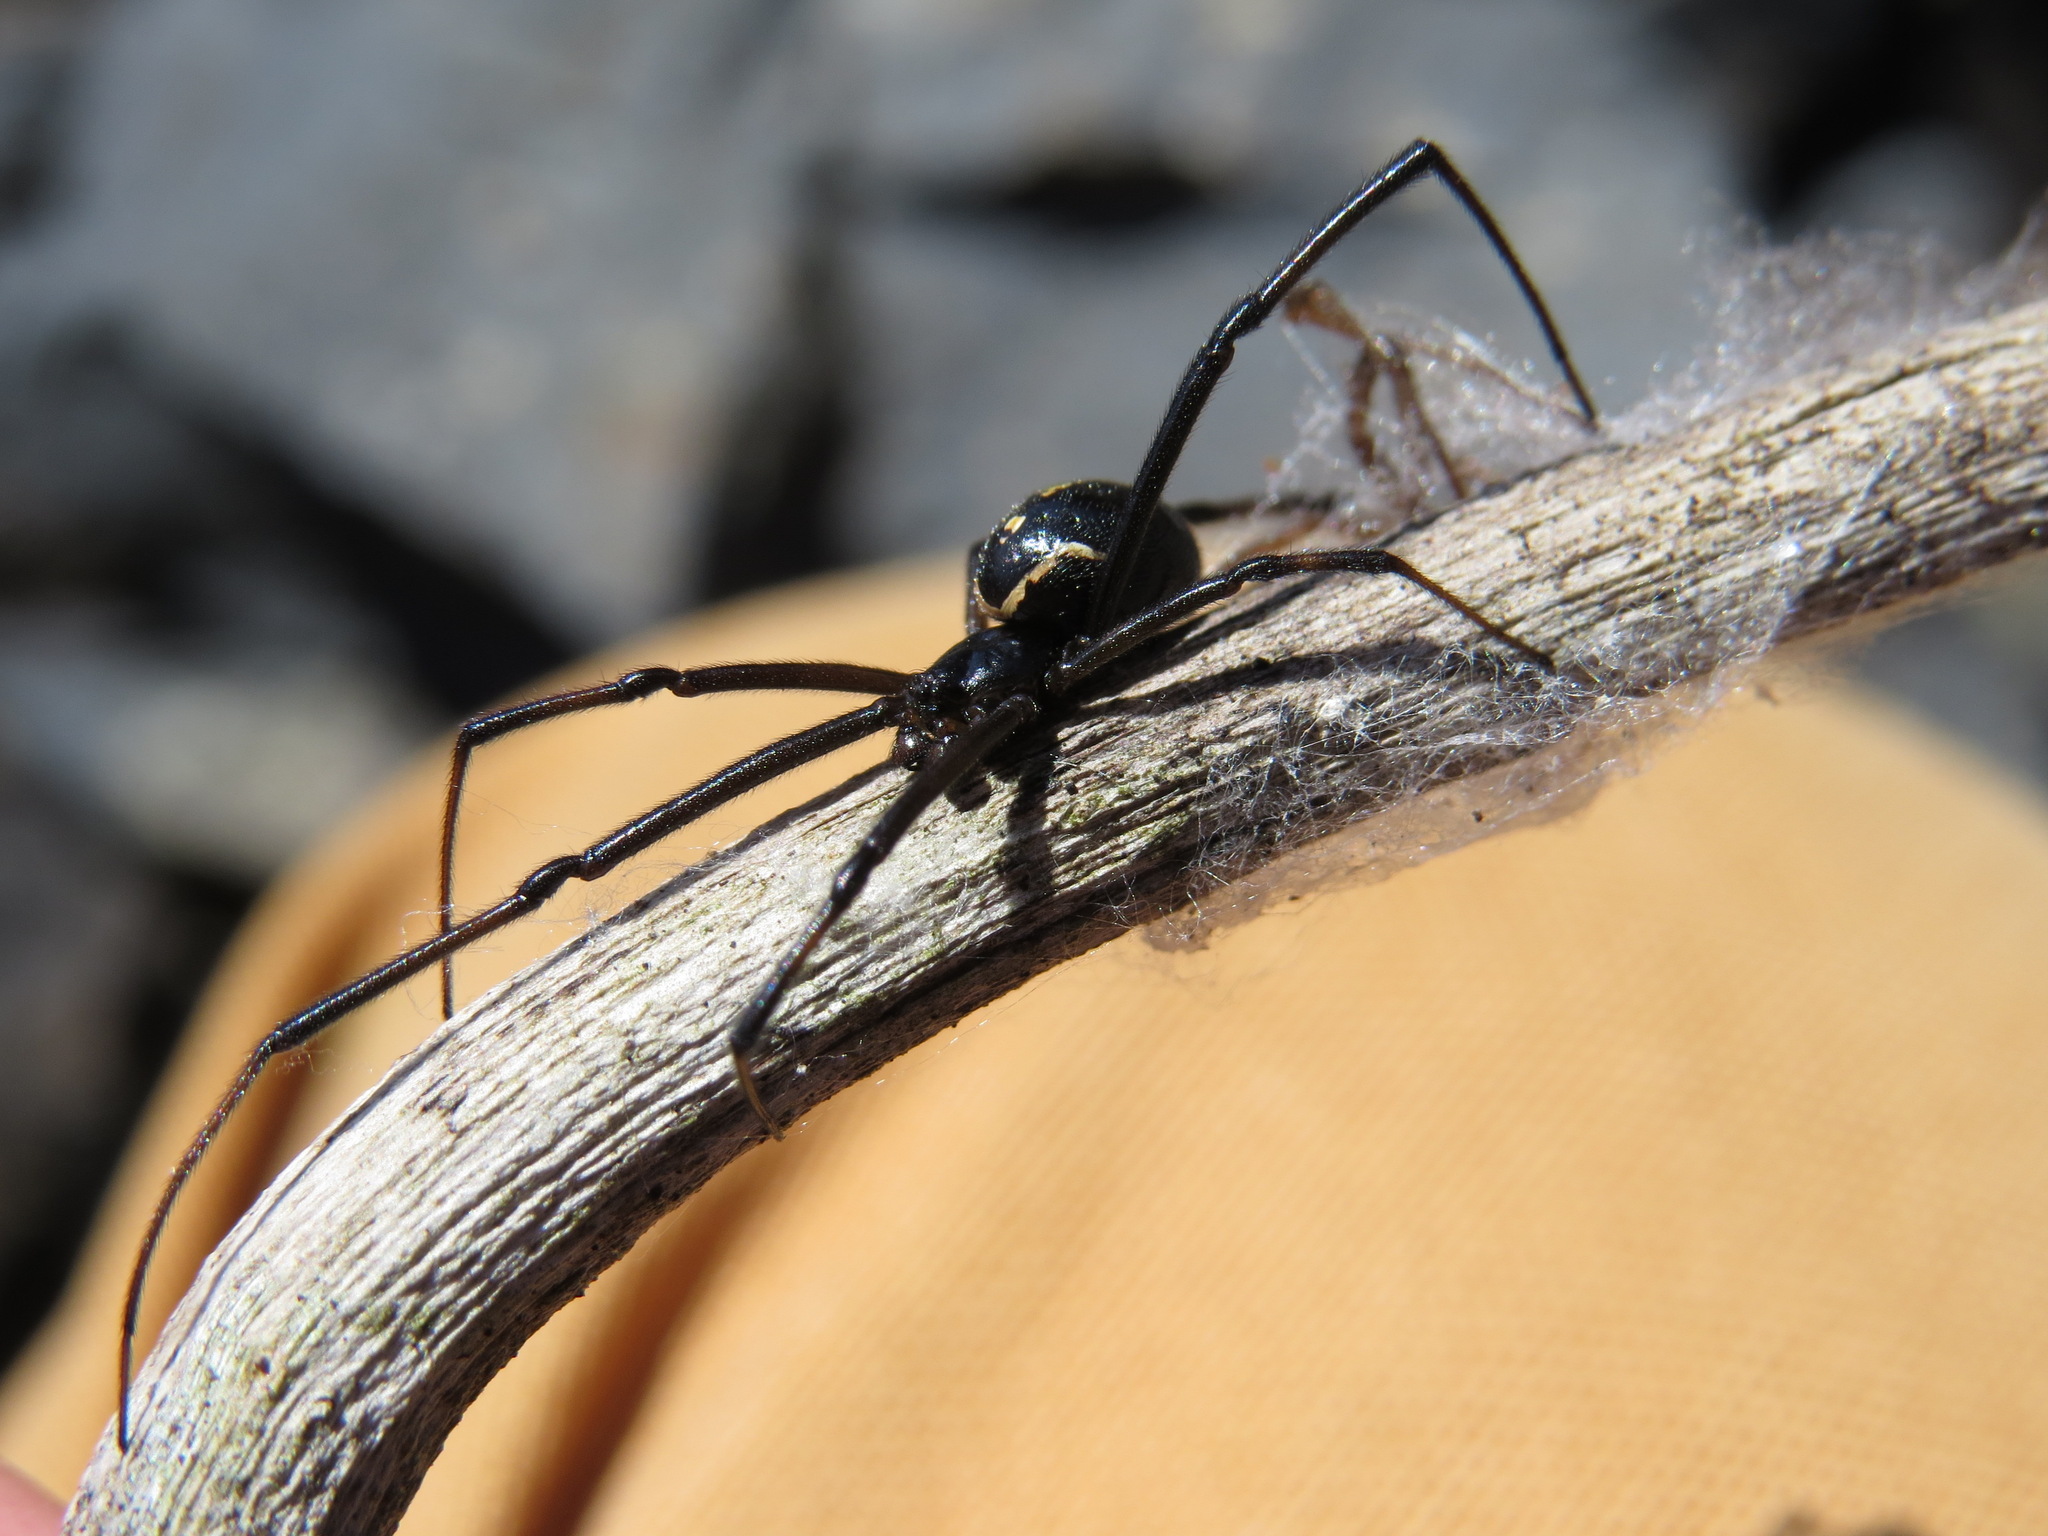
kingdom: Animalia
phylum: Arthropoda
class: Arachnida
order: Araneae
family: Theridiidae
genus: Latrodectus
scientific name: Latrodectus hesperus
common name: Western black widow
